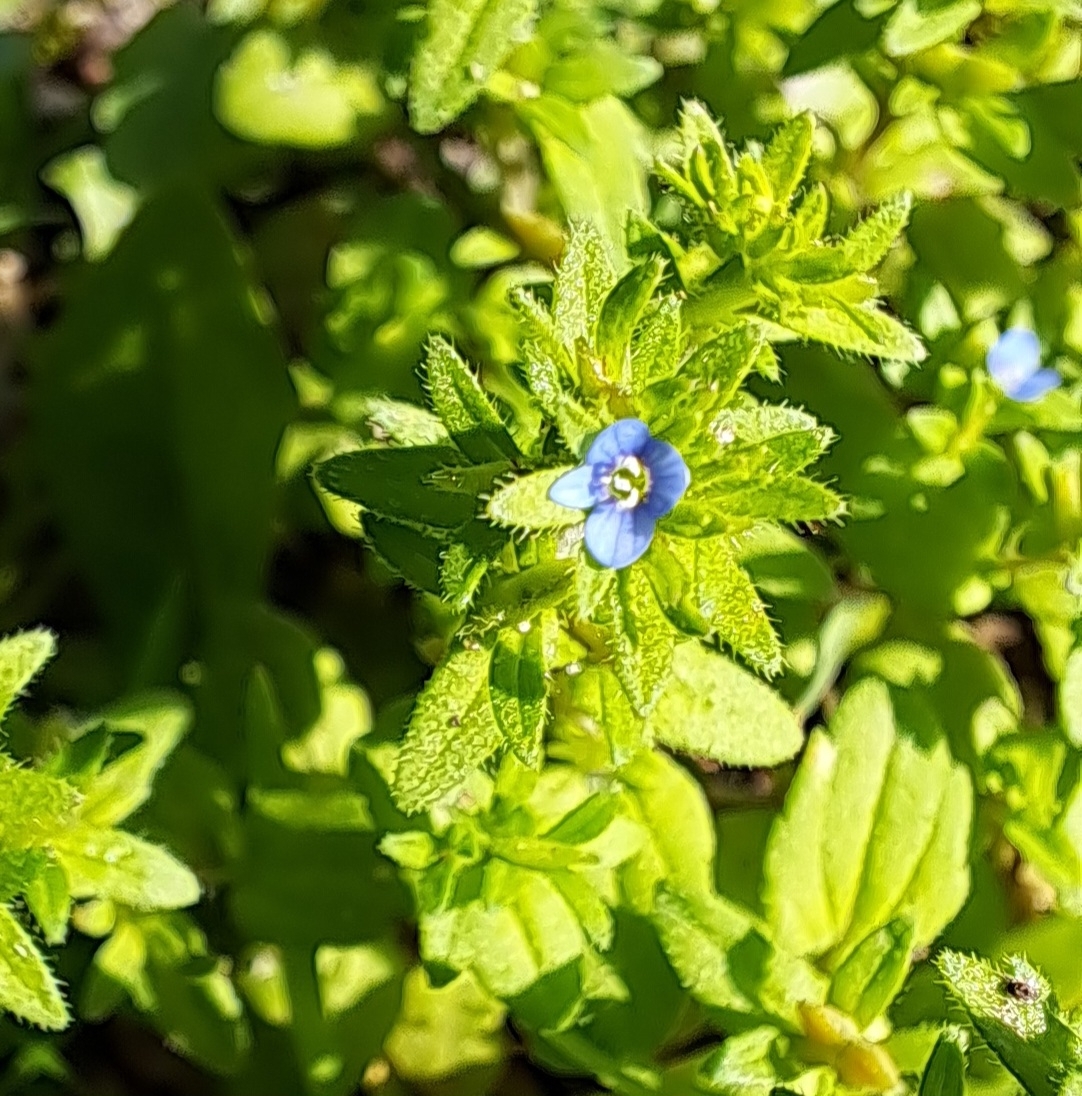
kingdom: Plantae
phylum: Tracheophyta
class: Magnoliopsida
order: Lamiales
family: Plantaginaceae
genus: Veronica
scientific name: Veronica arvensis
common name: Corn speedwell
